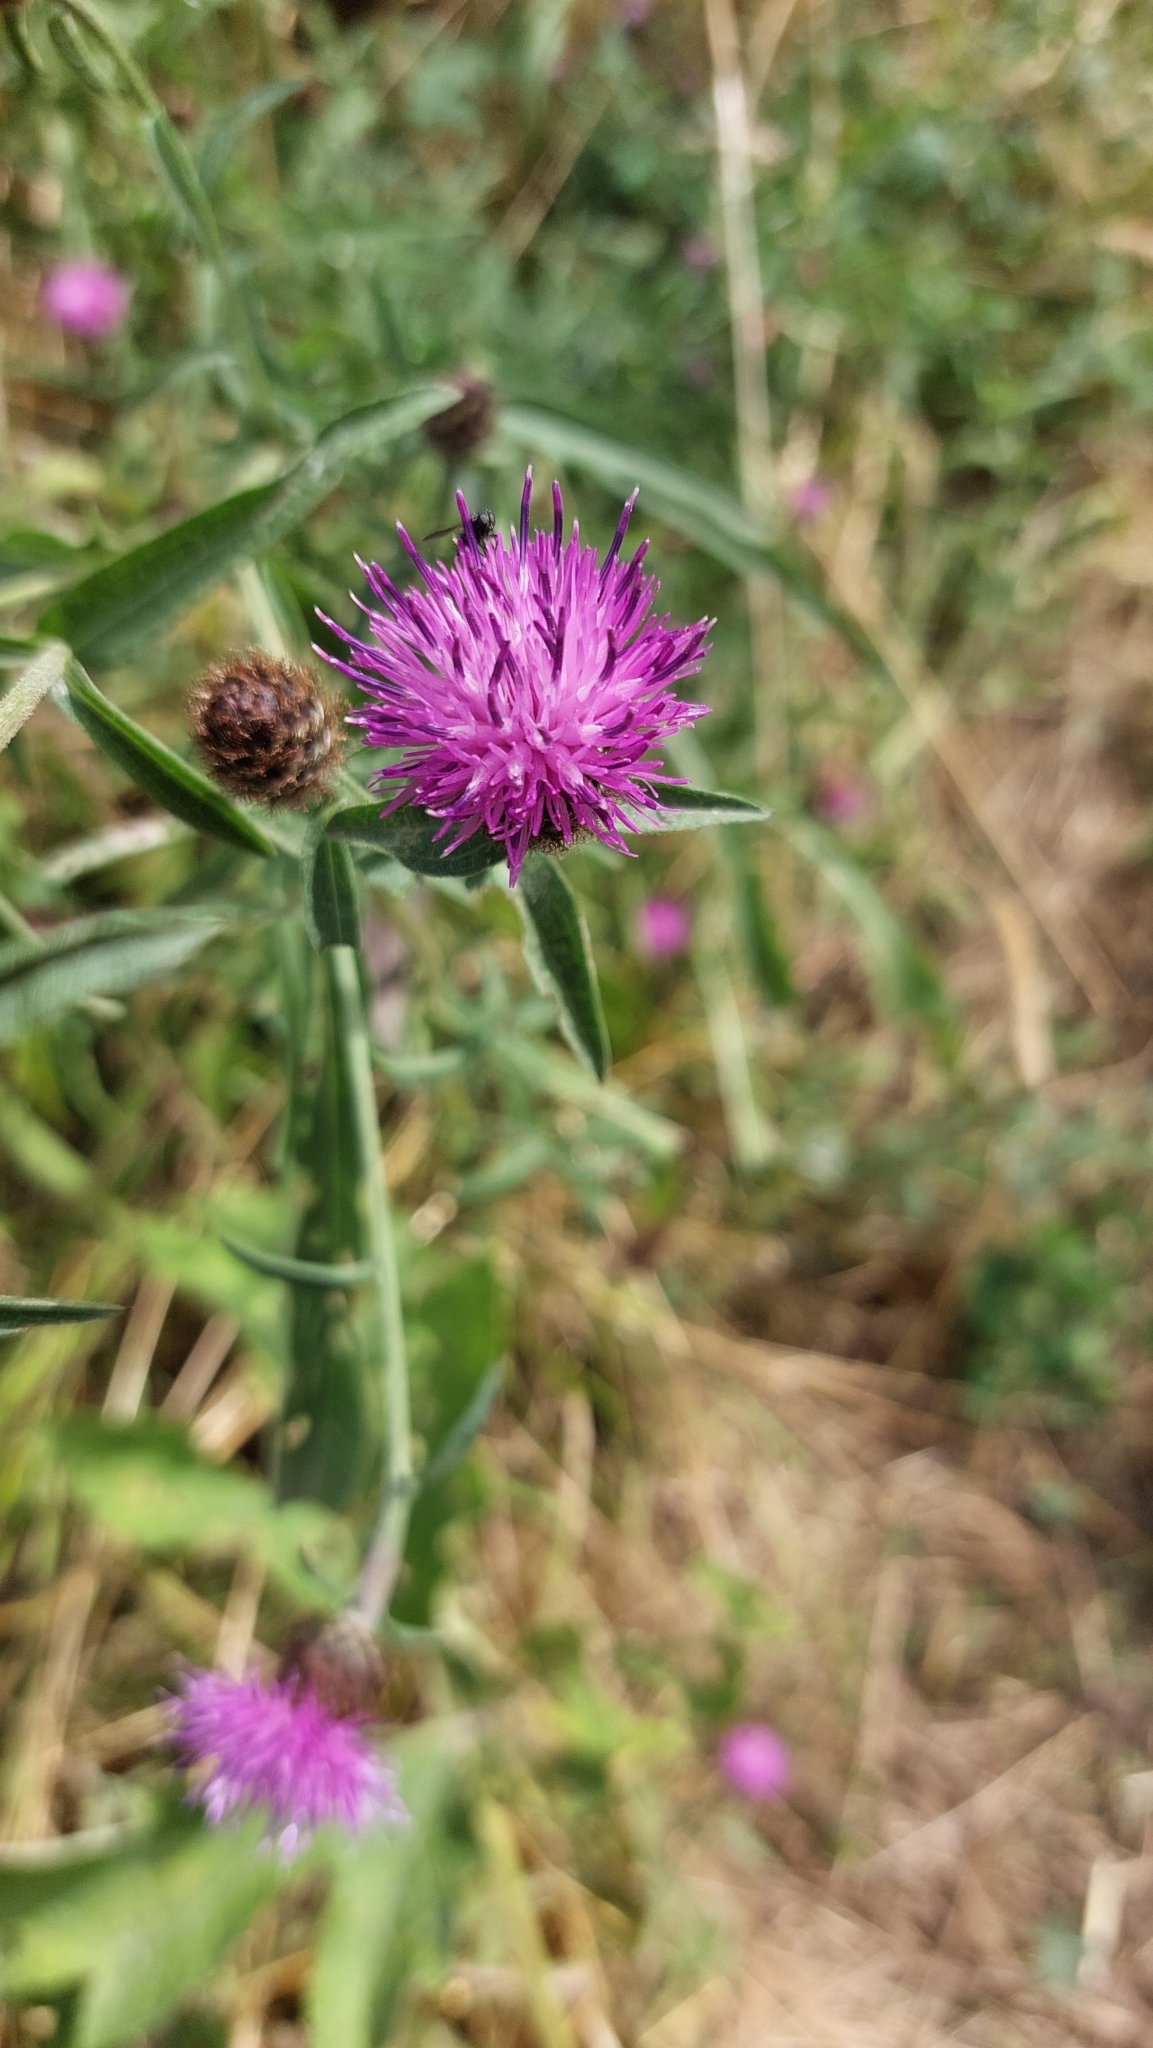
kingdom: Plantae
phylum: Tracheophyta
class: Magnoliopsida
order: Asterales
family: Asteraceae
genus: Centaurea
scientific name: Centaurea nigra
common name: Lesser knapweed
